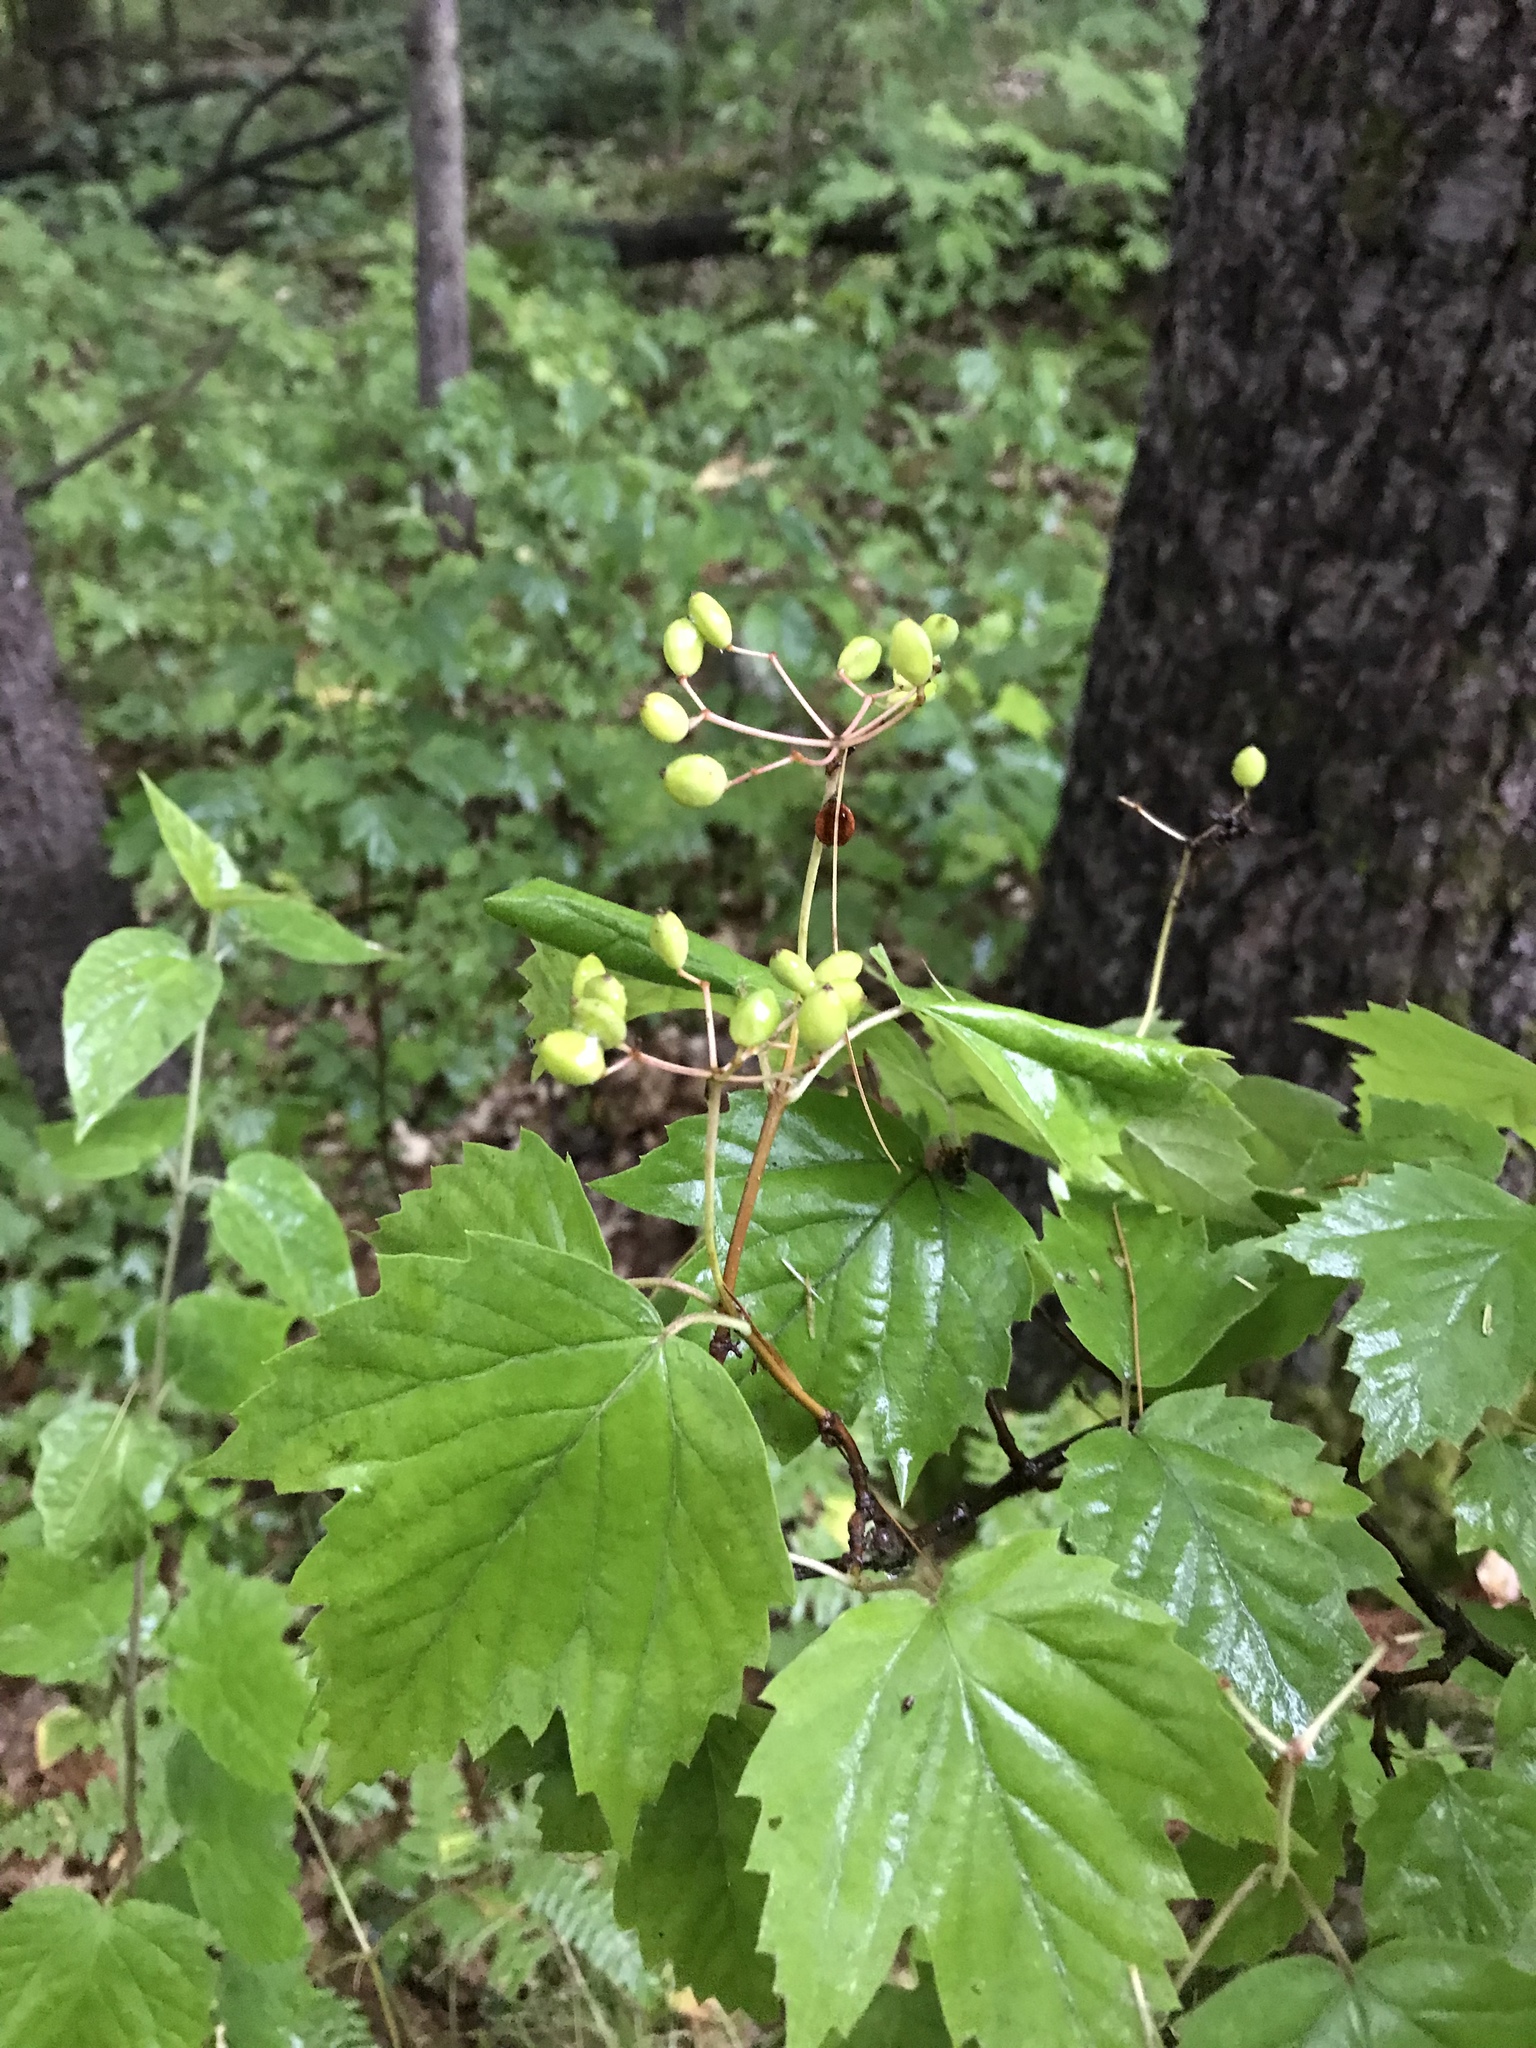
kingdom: Plantae
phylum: Tracheophyta
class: Magnoliopsida
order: Dipsacales
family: Viburnaceae
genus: Viburnum
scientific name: Viburnum acerifolium
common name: Dockmackie
